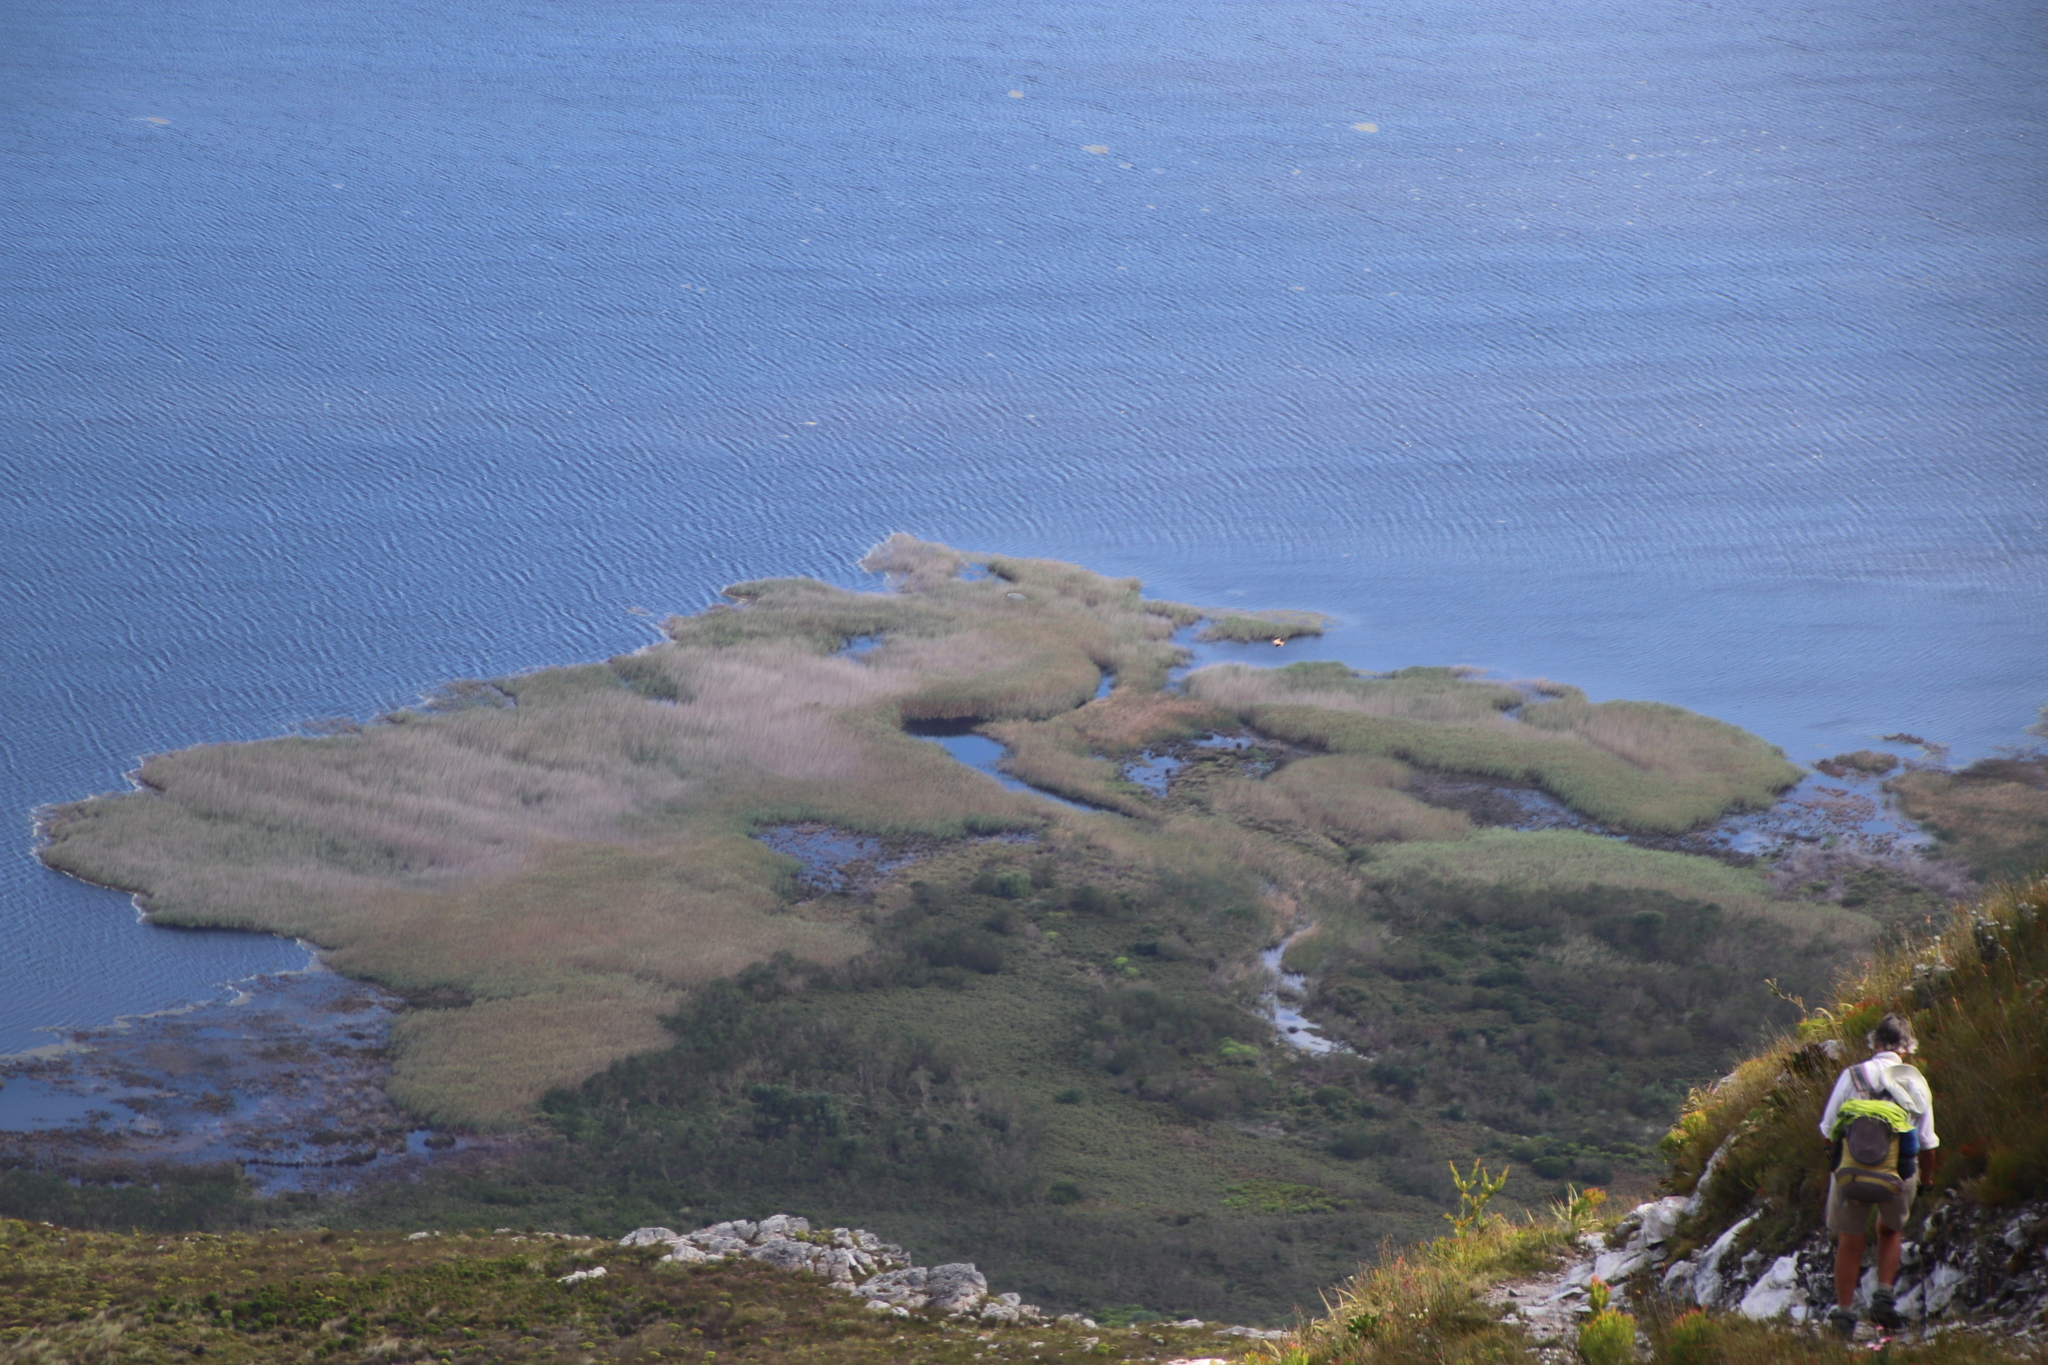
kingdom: Plantae
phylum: Tracheophyta
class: Liliopsida
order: Poales
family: Poaceae
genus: Phragmites
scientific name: Phragmites australis
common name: Common reed
